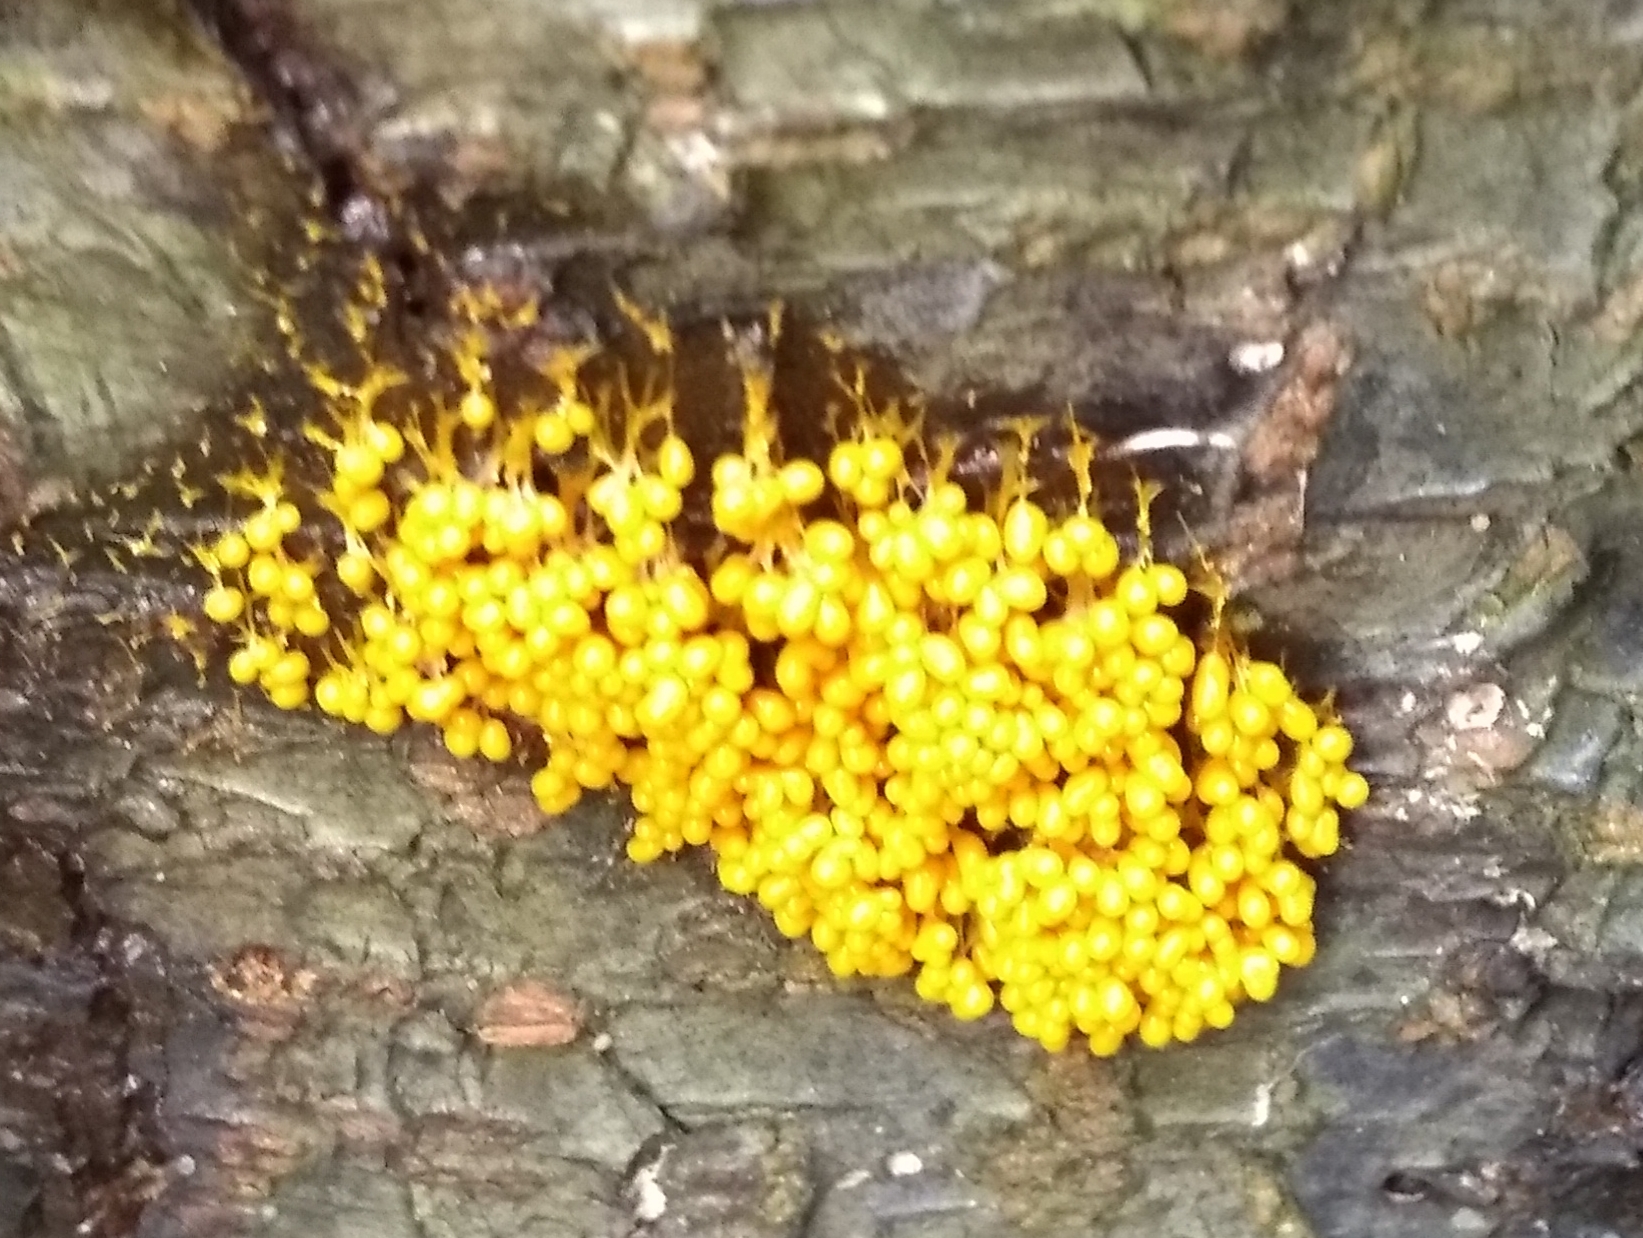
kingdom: Protozoa
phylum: Mycetozoa
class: Myxomycetes
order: Physarales
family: Physaraceae
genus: Badhamia
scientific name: Badhamia utricularis
